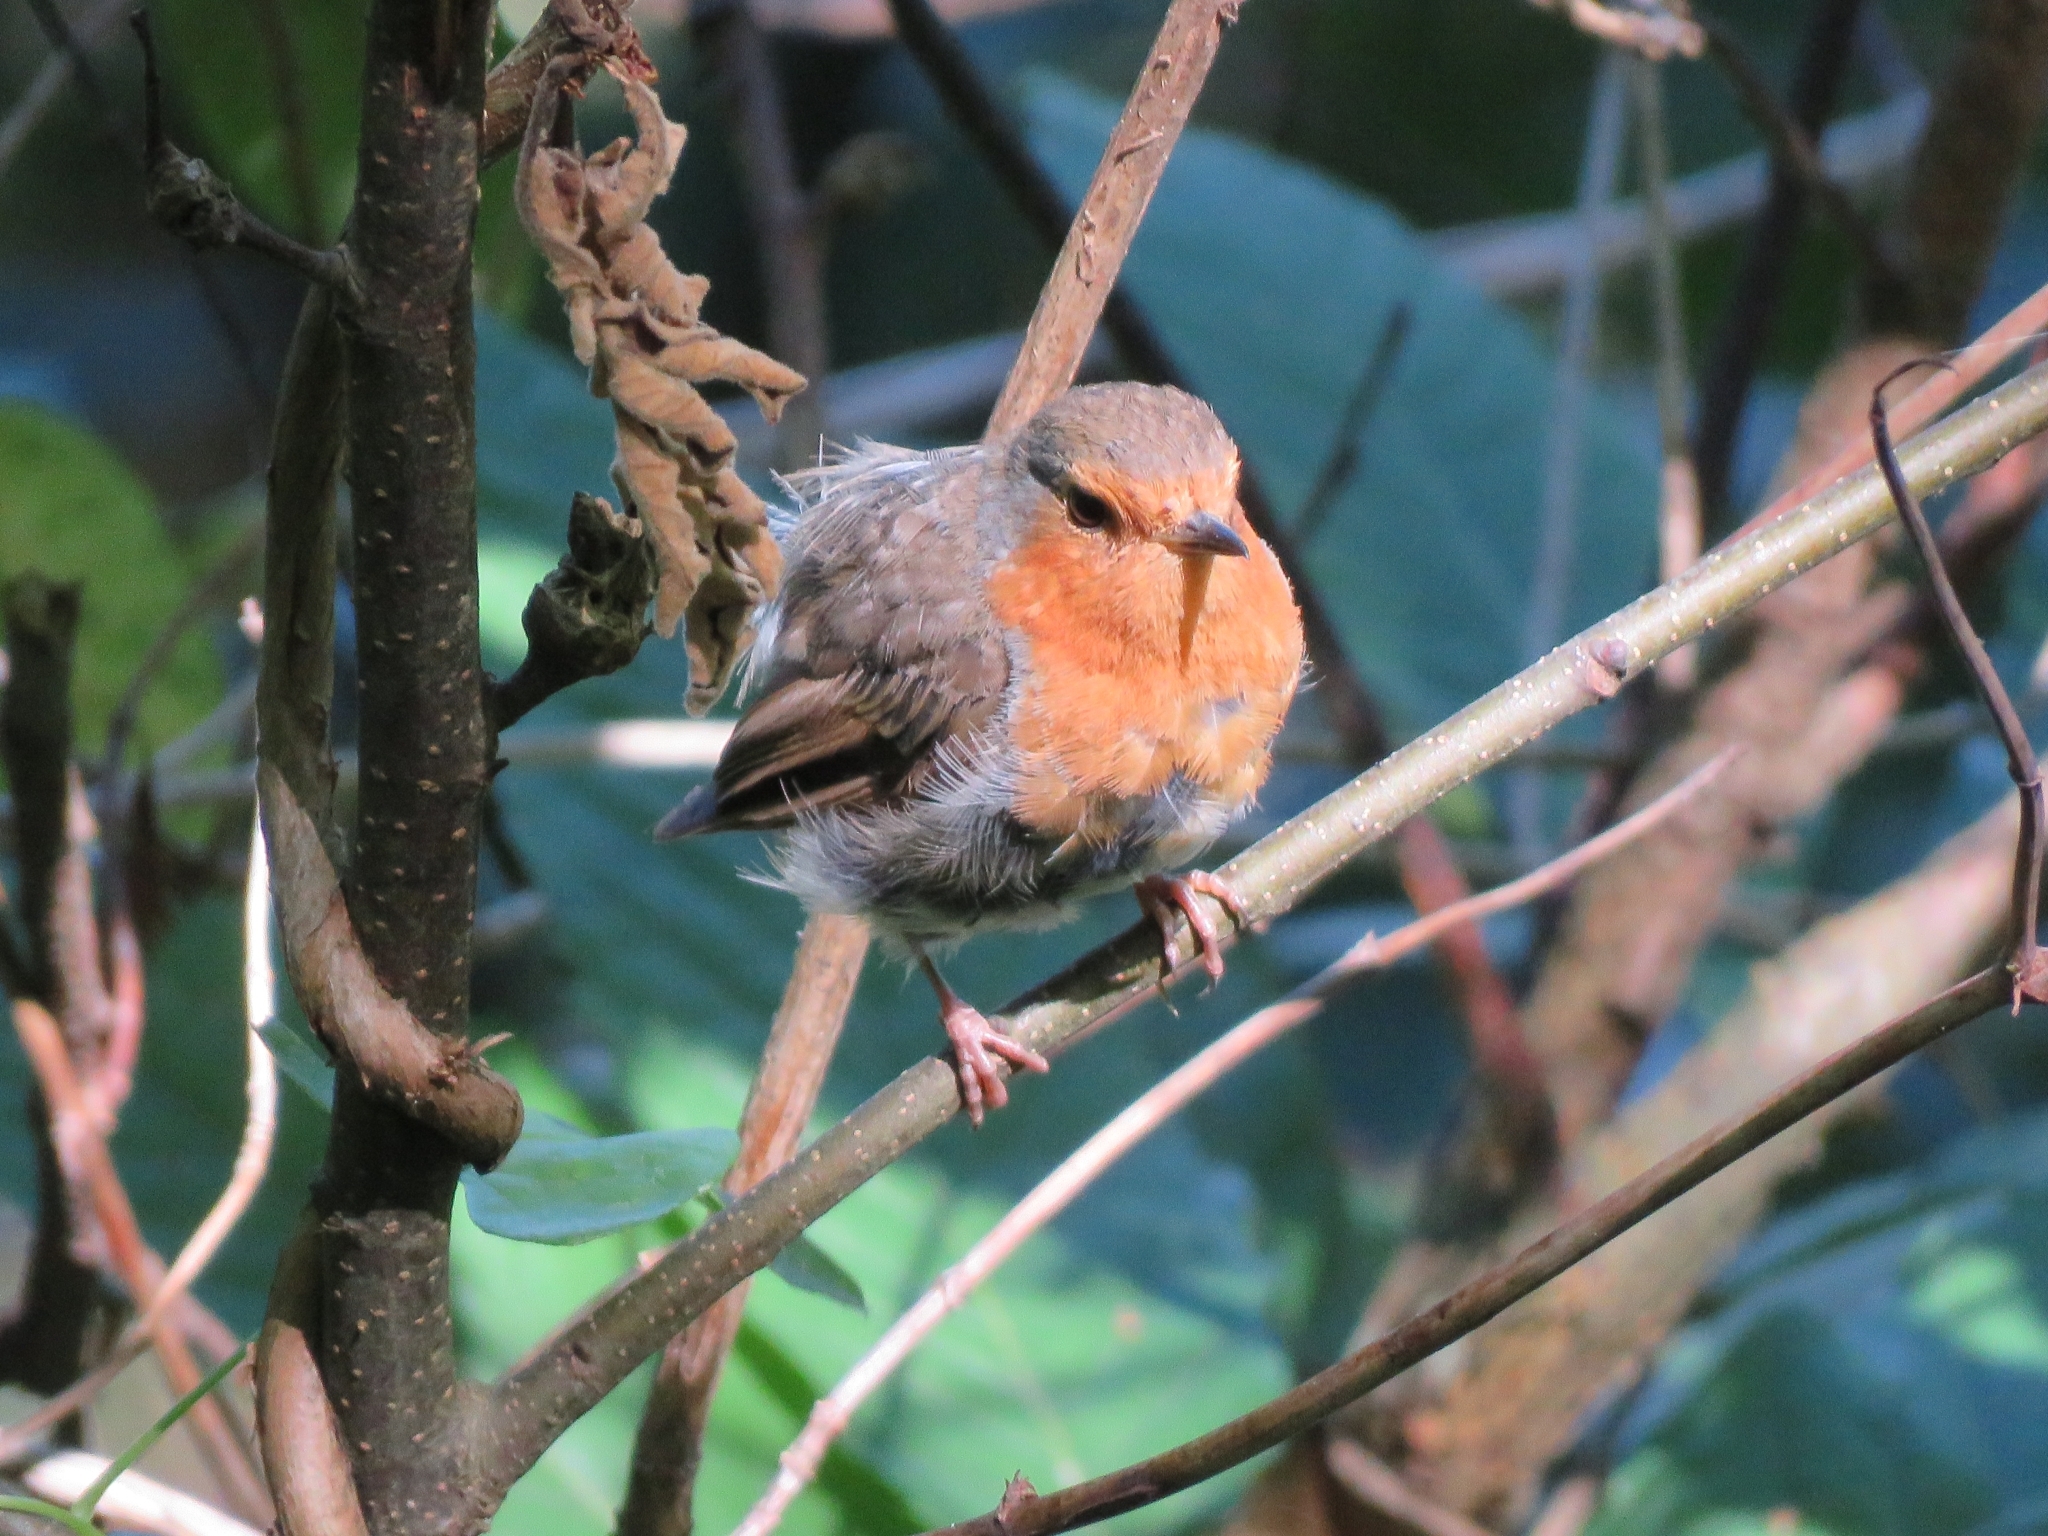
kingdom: Animalia
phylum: Chordata
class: Aves
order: Passeriformes
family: Muscicapidae
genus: Erithacus
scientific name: Erithacus rubecula
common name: European robin
